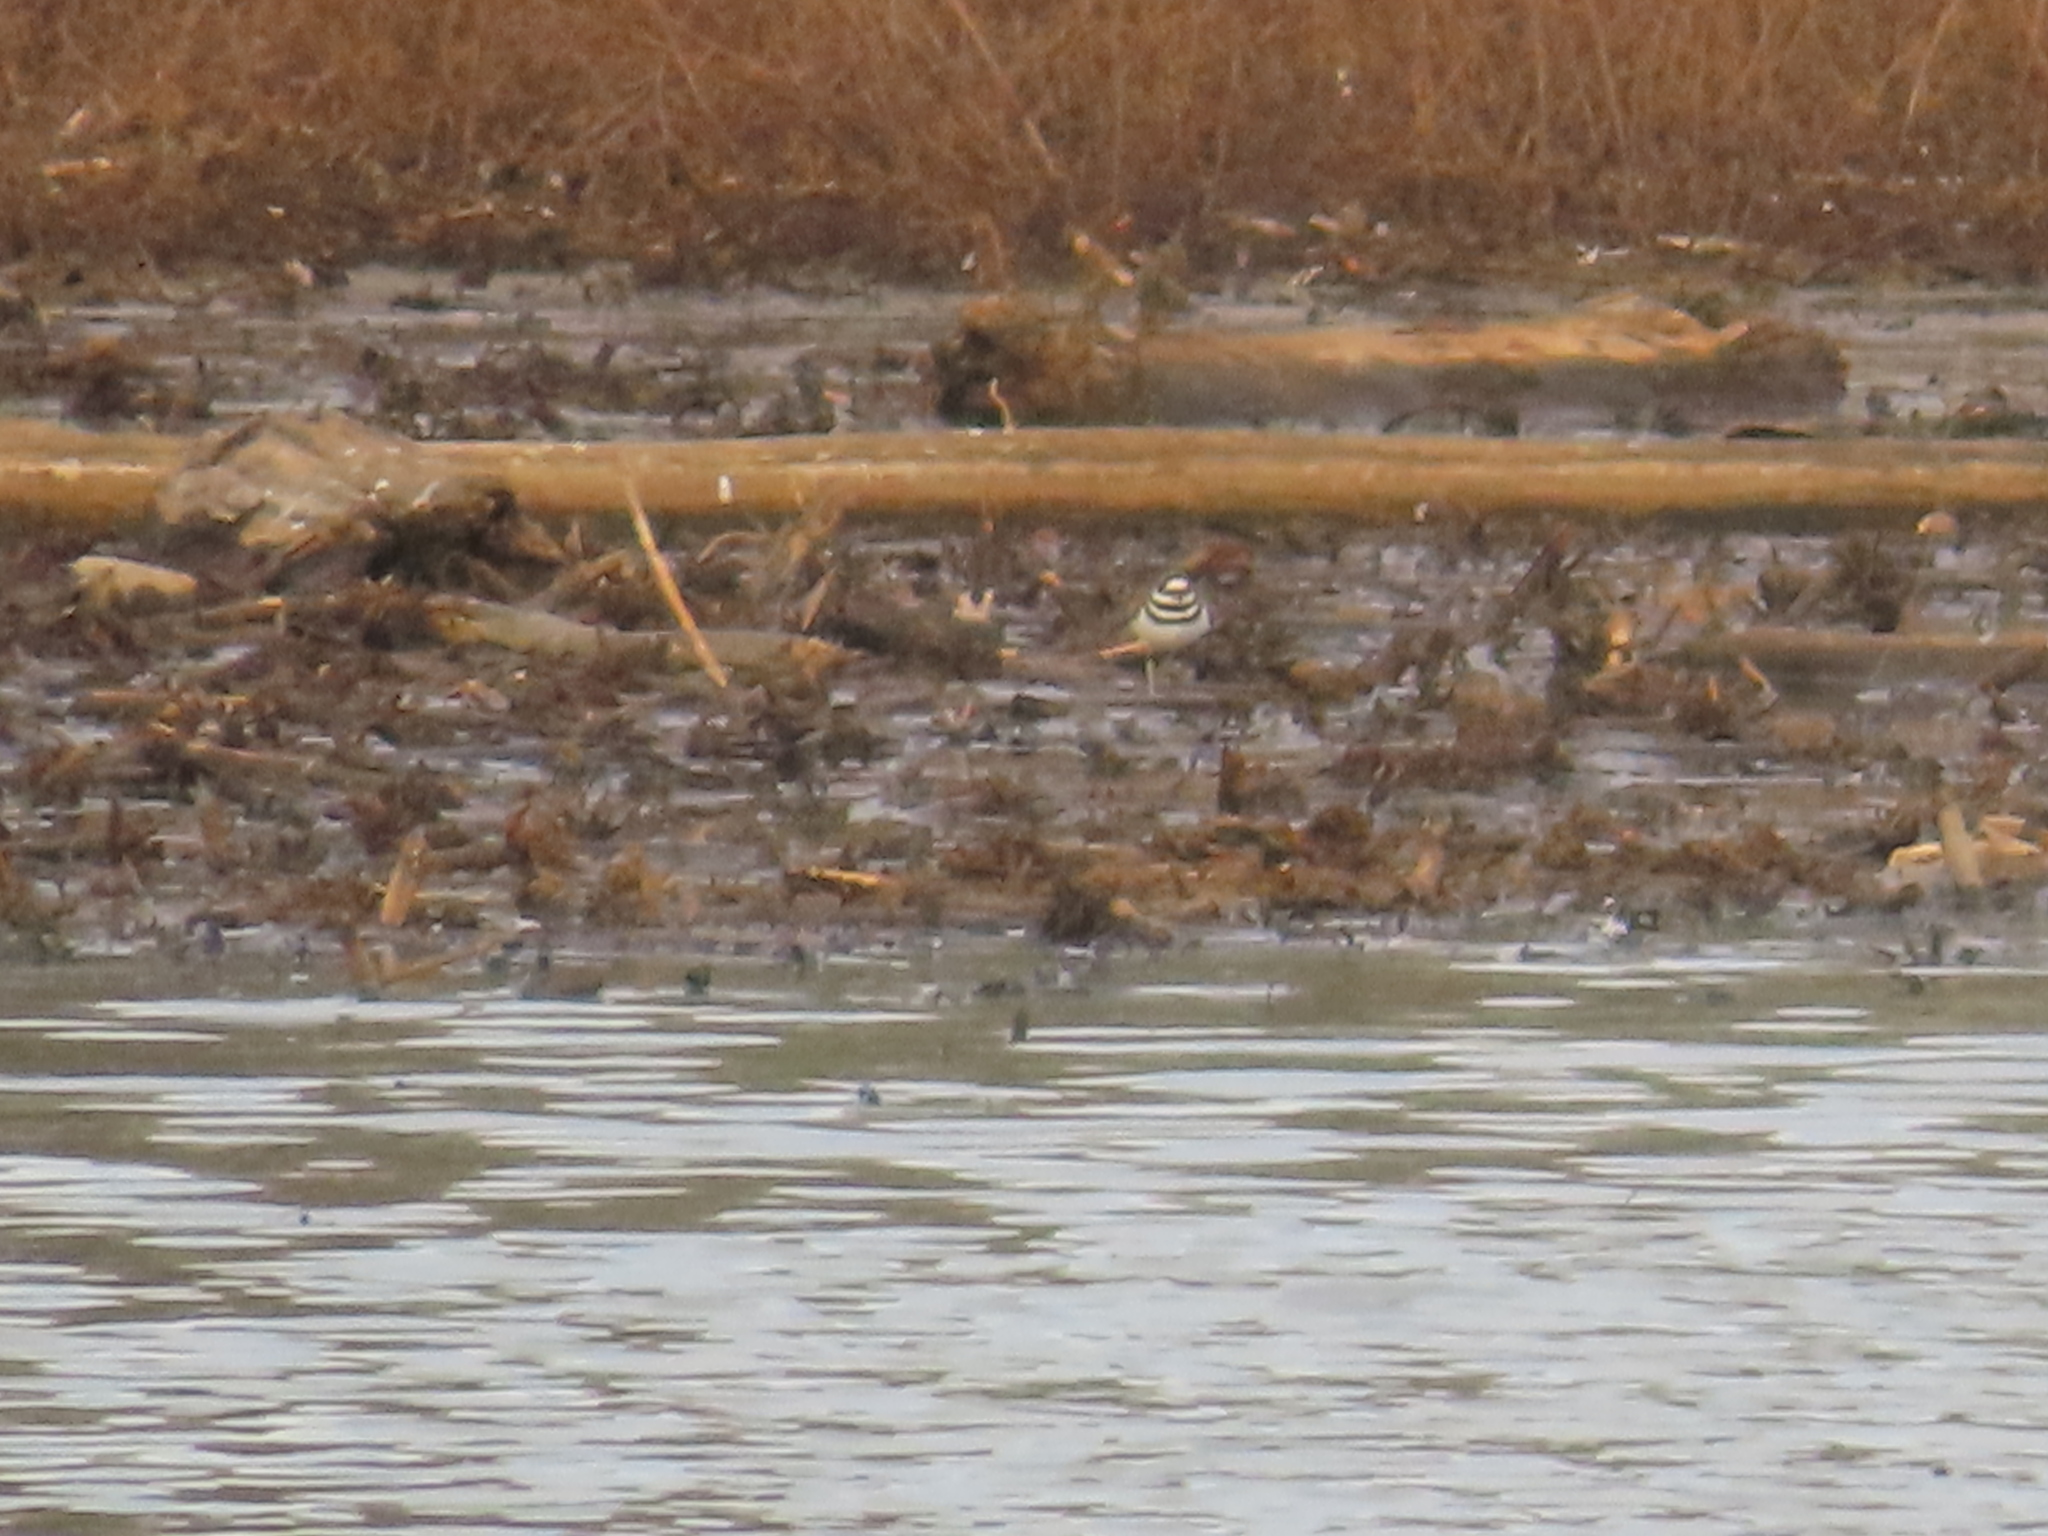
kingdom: Animalia
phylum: Chordata
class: Aves
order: Charadriiformes
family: Charadriidae
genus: Charadrius
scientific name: Charadrius vociferus
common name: Killdeer
